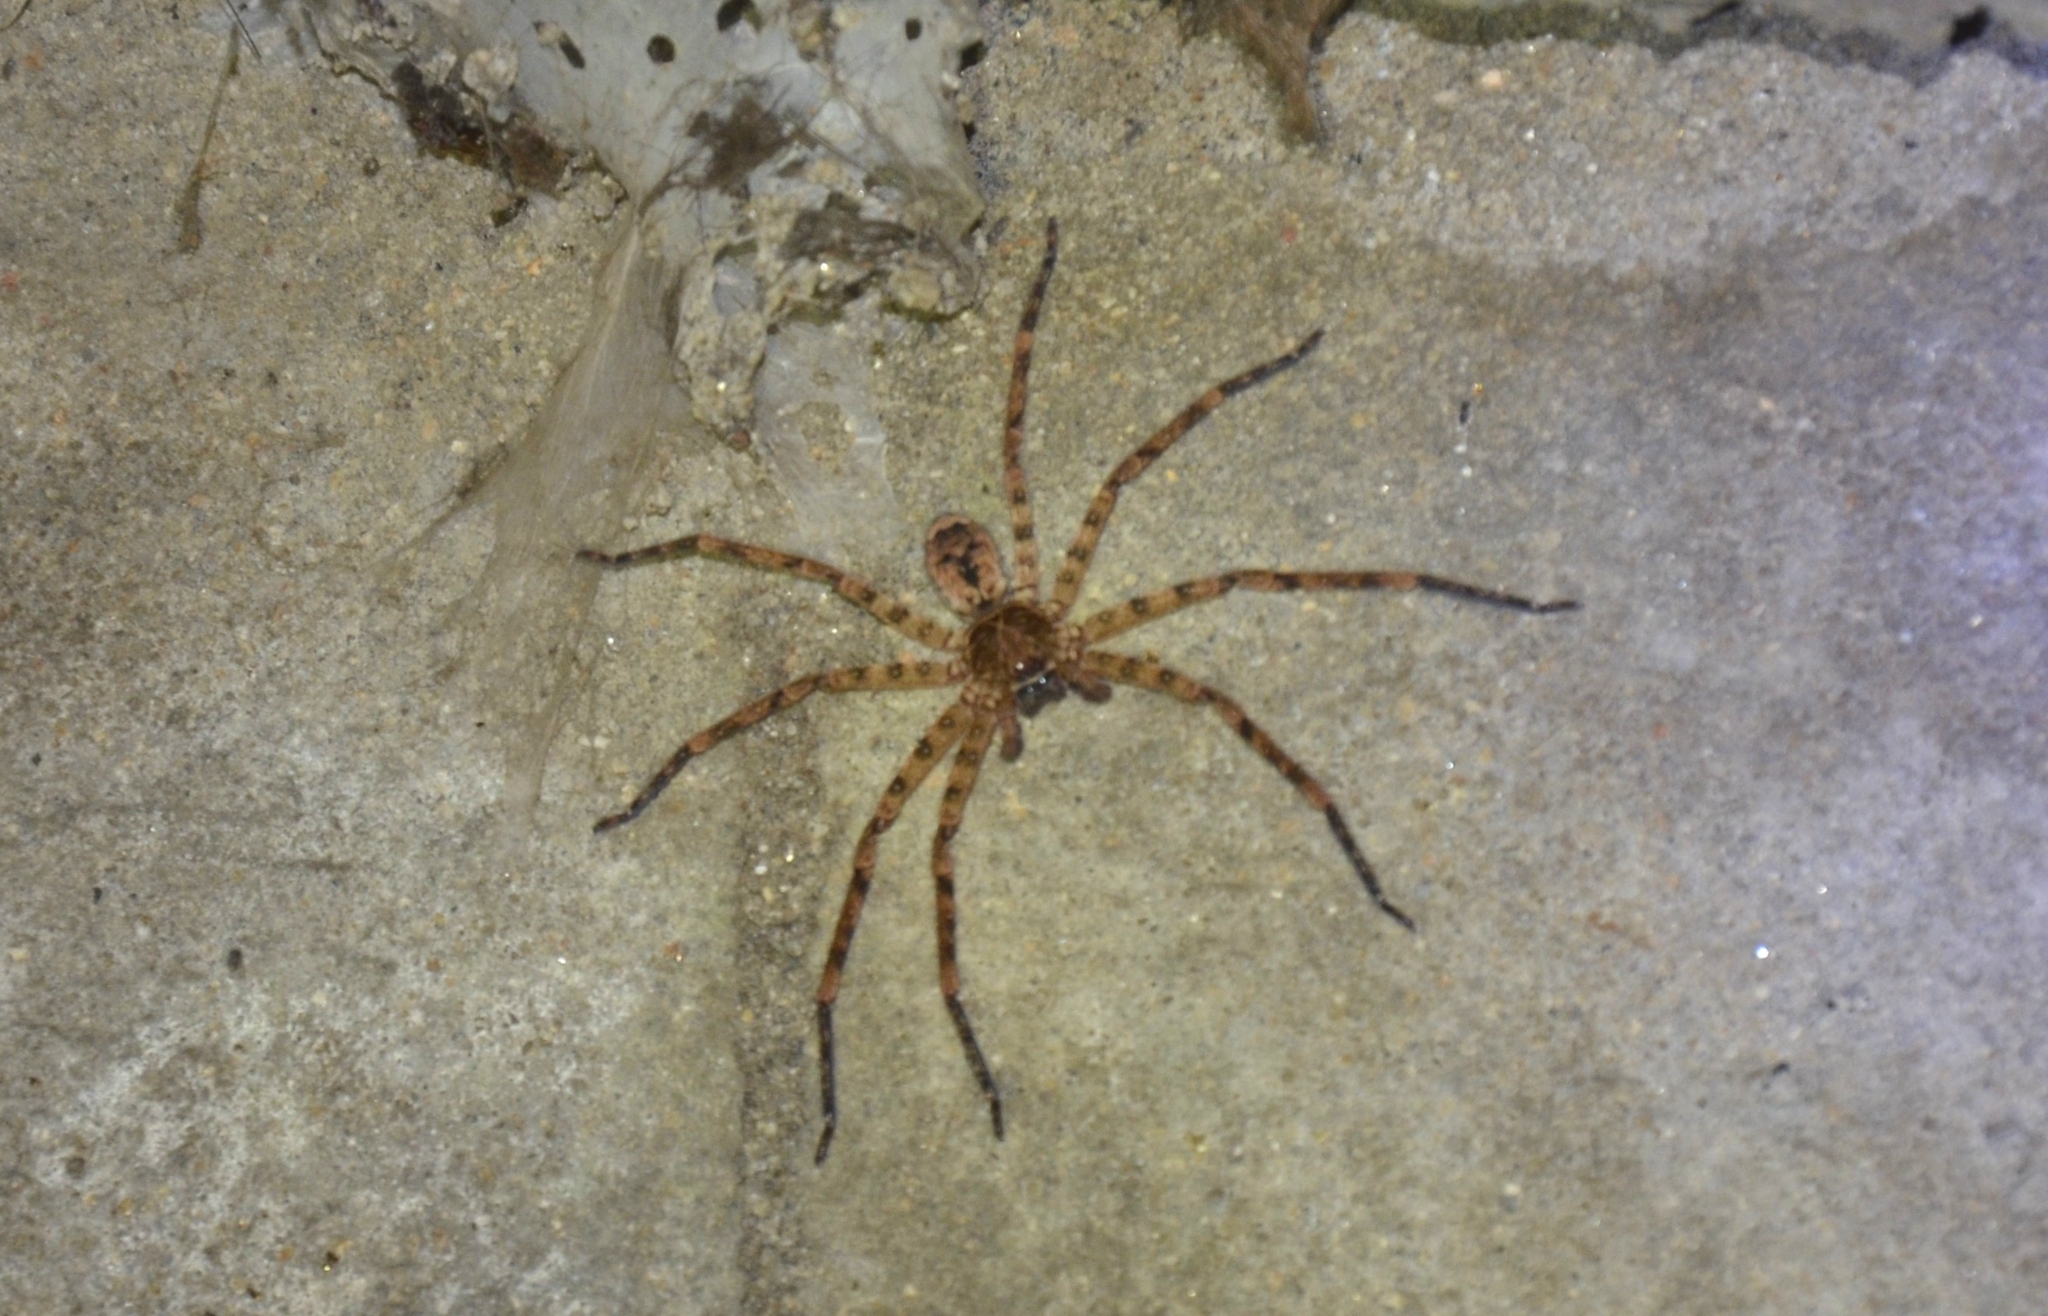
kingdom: Animalia
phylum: Arthropoda
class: Arachnida
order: Araneae
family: Sparassidae
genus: Heteropoda
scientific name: Heteropoda venatoria
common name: Huntsman spider
